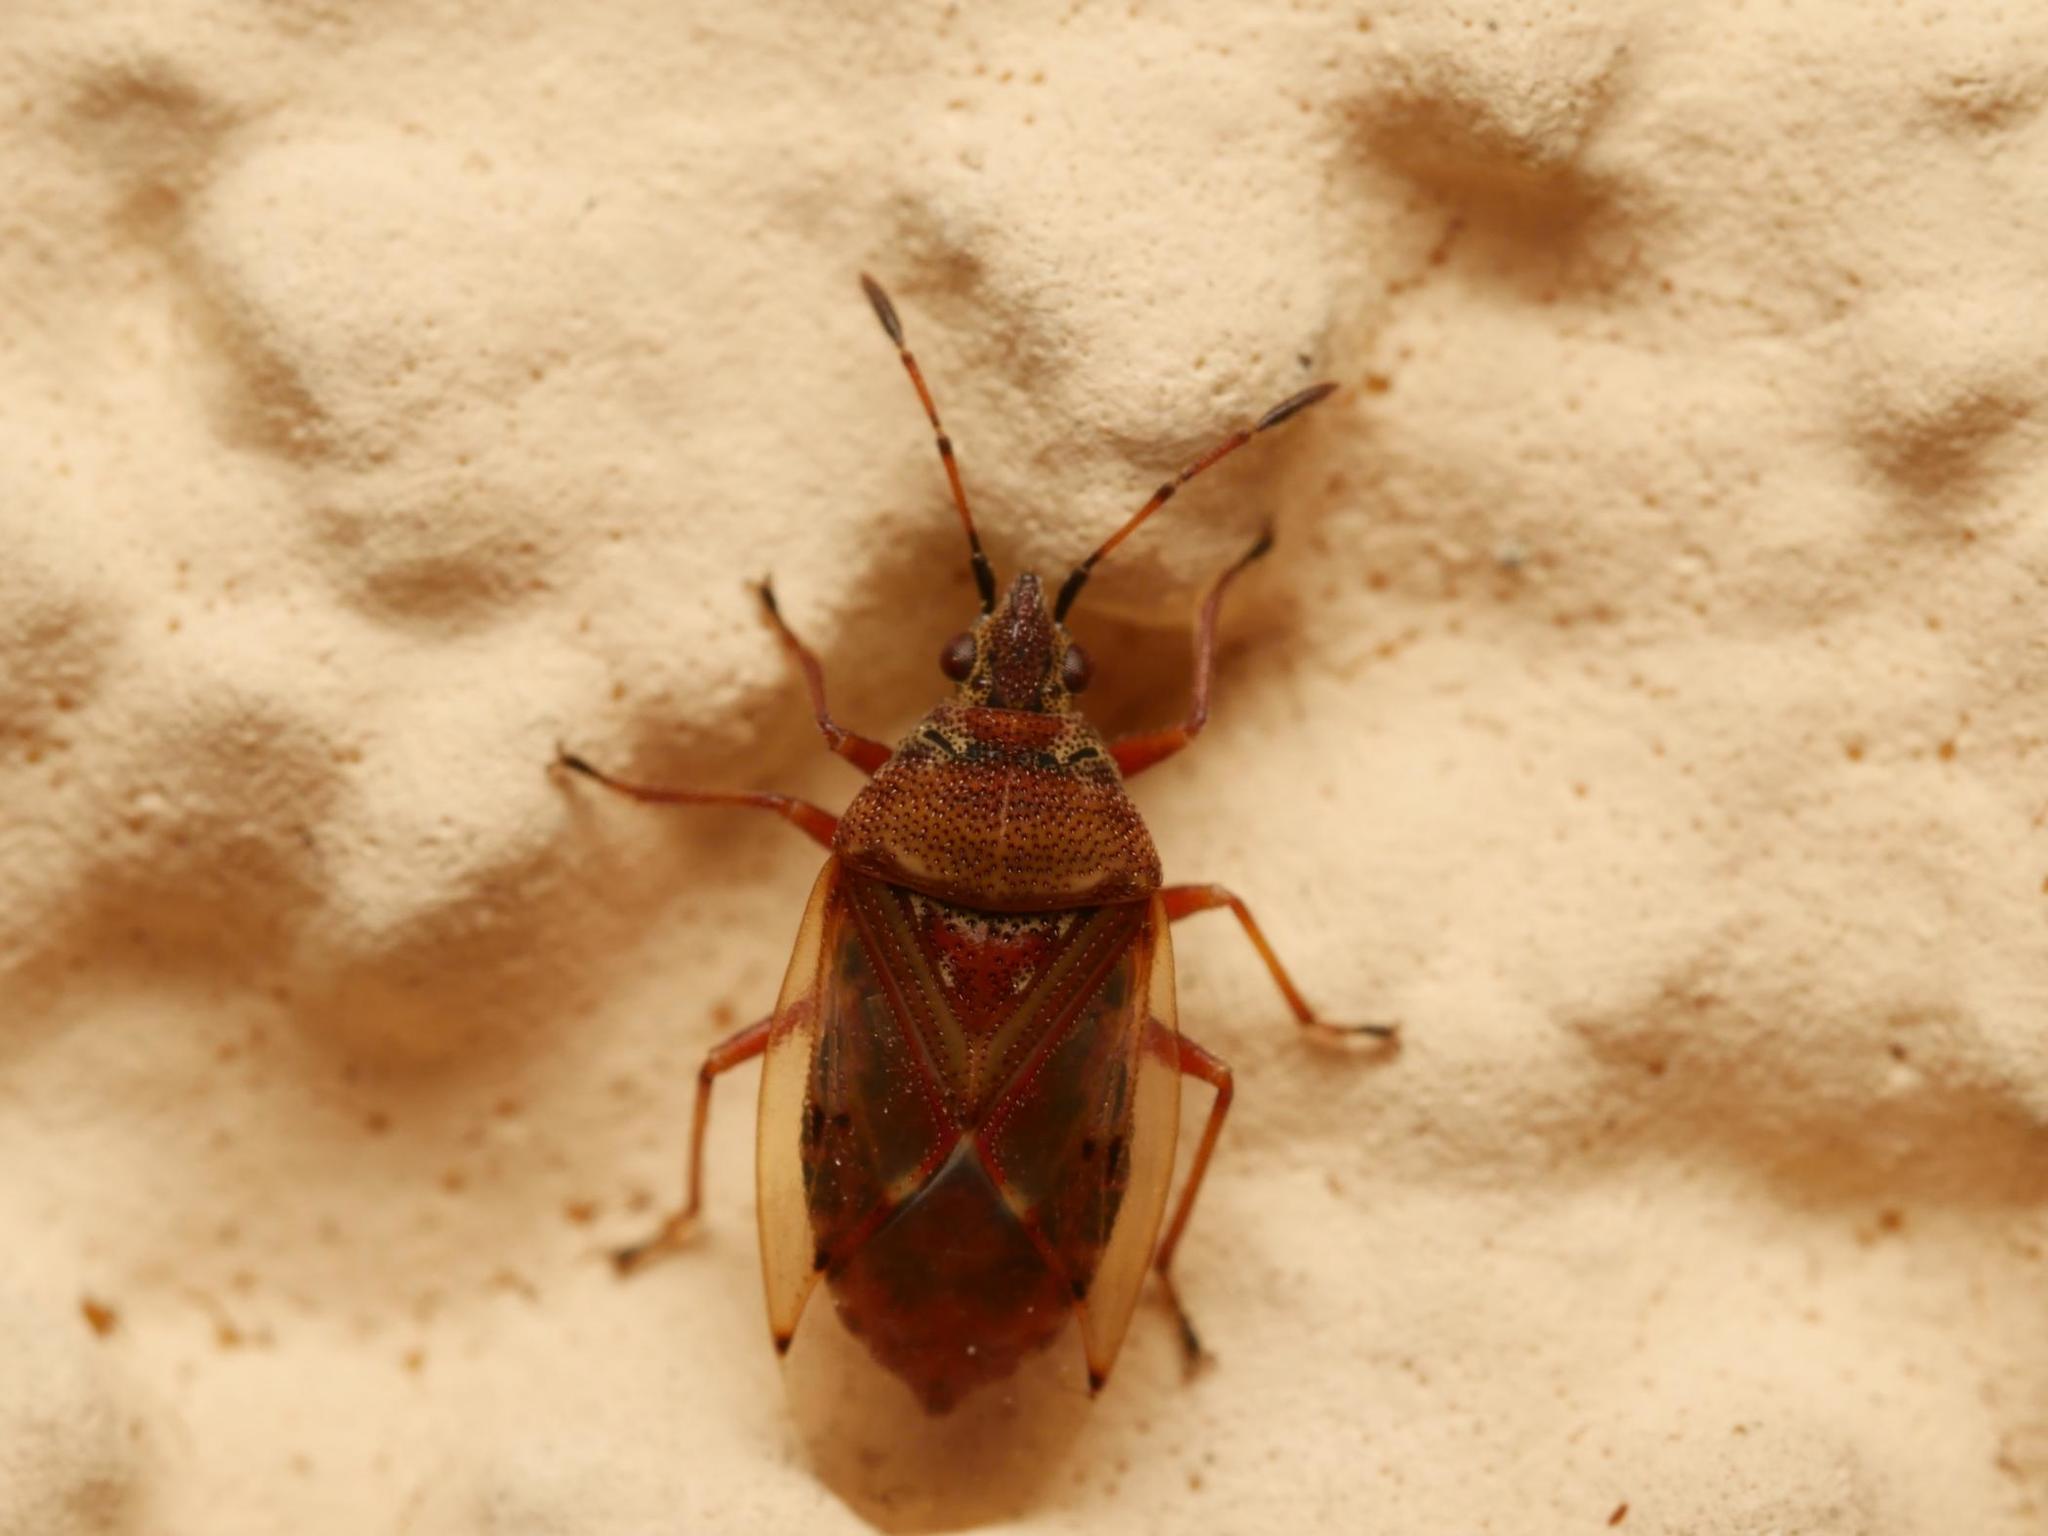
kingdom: Animalia
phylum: Arthropoda
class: Insecta
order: Hemiptera
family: Lygaeidae
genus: Kleidocerys
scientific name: Kleidocerys resedae
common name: Birch catkin bug
